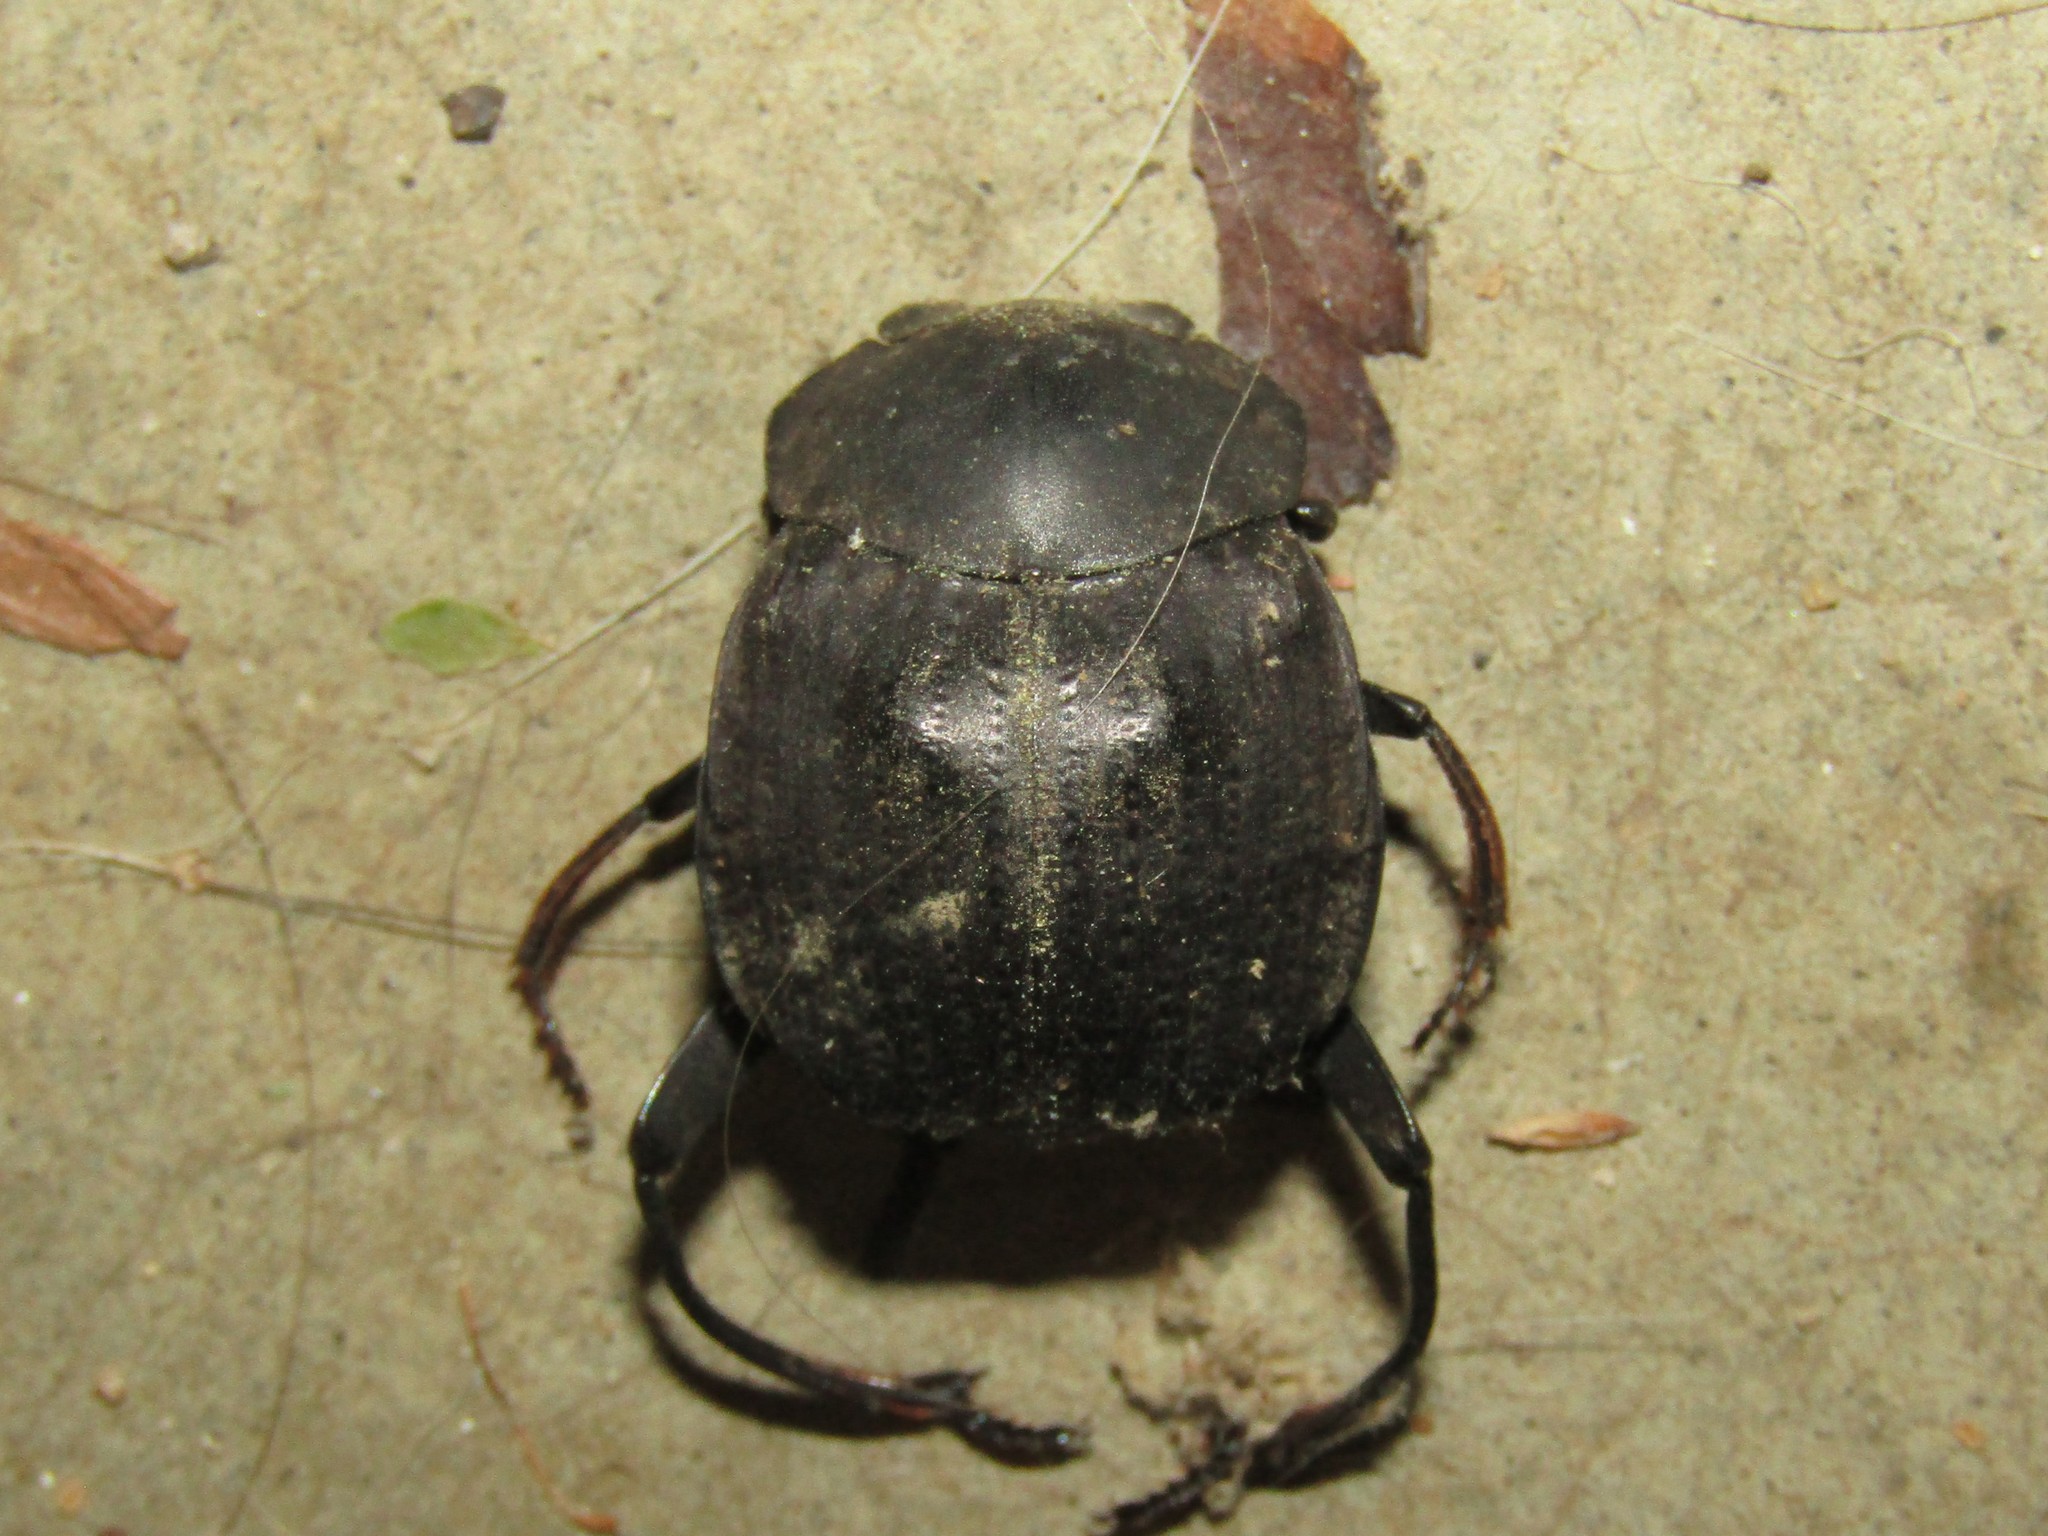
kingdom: Animalia
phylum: Arthropoda
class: Insecta
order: Coleoptera
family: Scarabaeidae
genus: Deltochilum
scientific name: Deltochilum gibbosum
